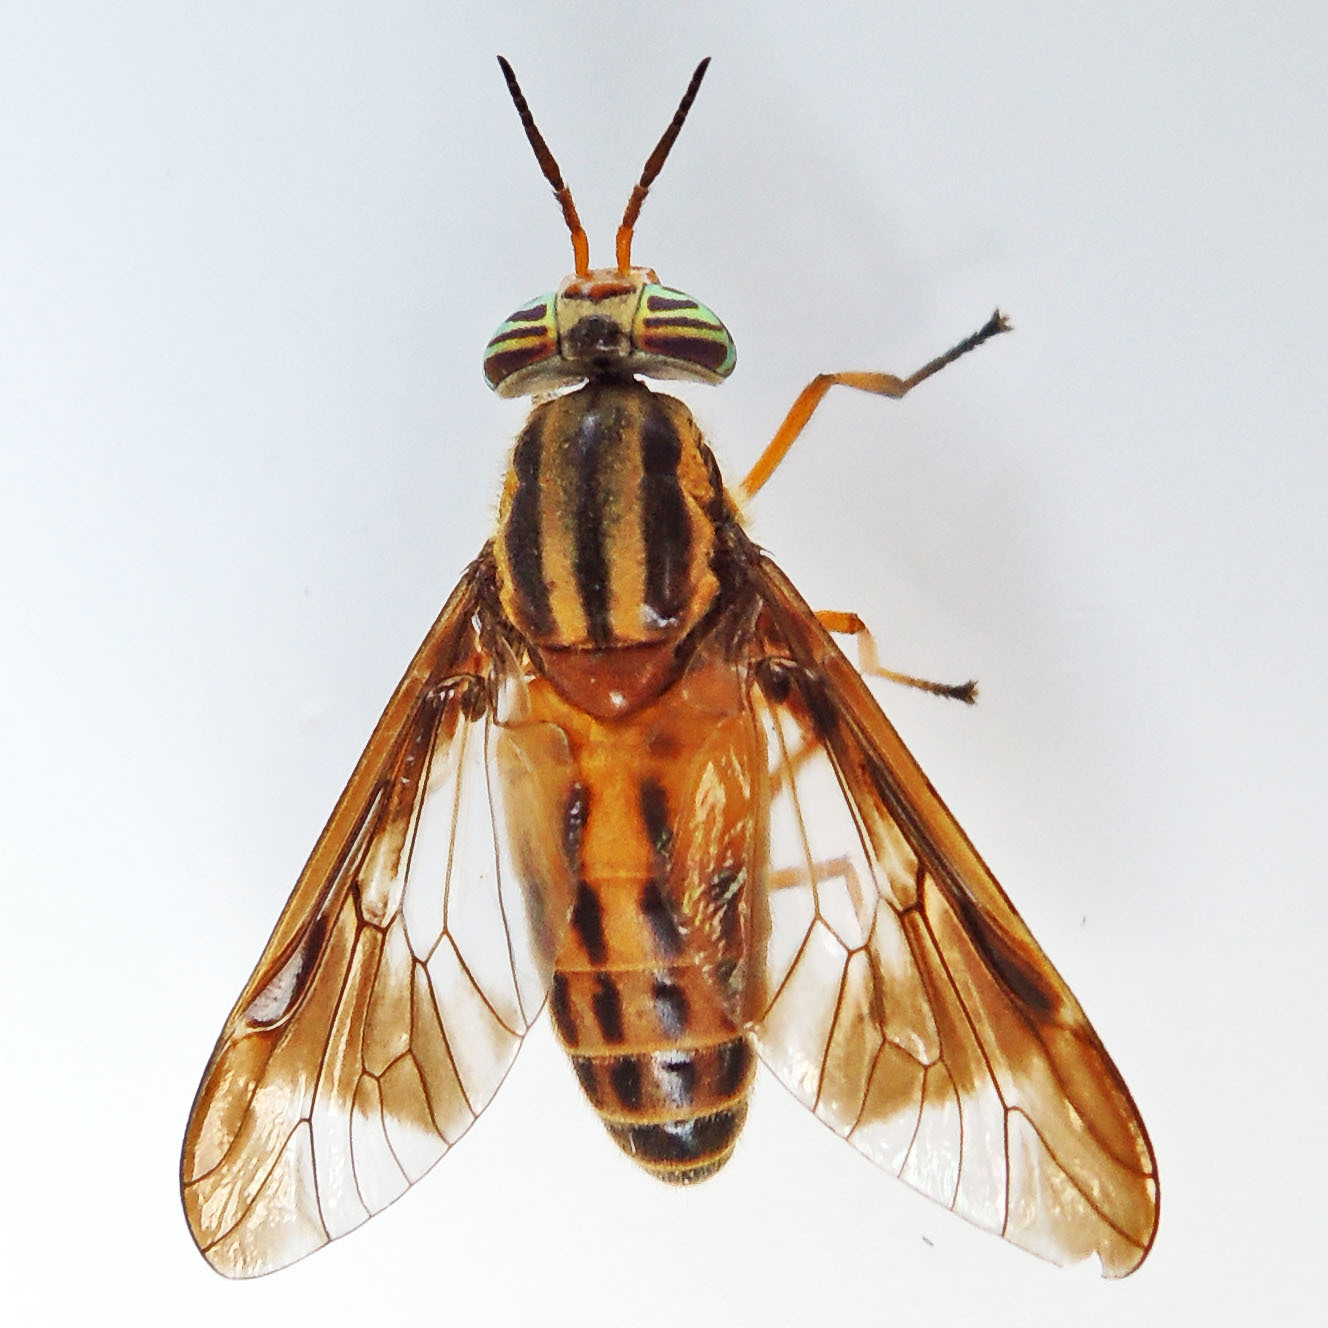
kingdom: Animalia
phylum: Arthropoda
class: Insecta
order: Diptera
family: Tabanidae
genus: Chrysops
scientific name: Chrysops vittatus
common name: Striped deer fly
